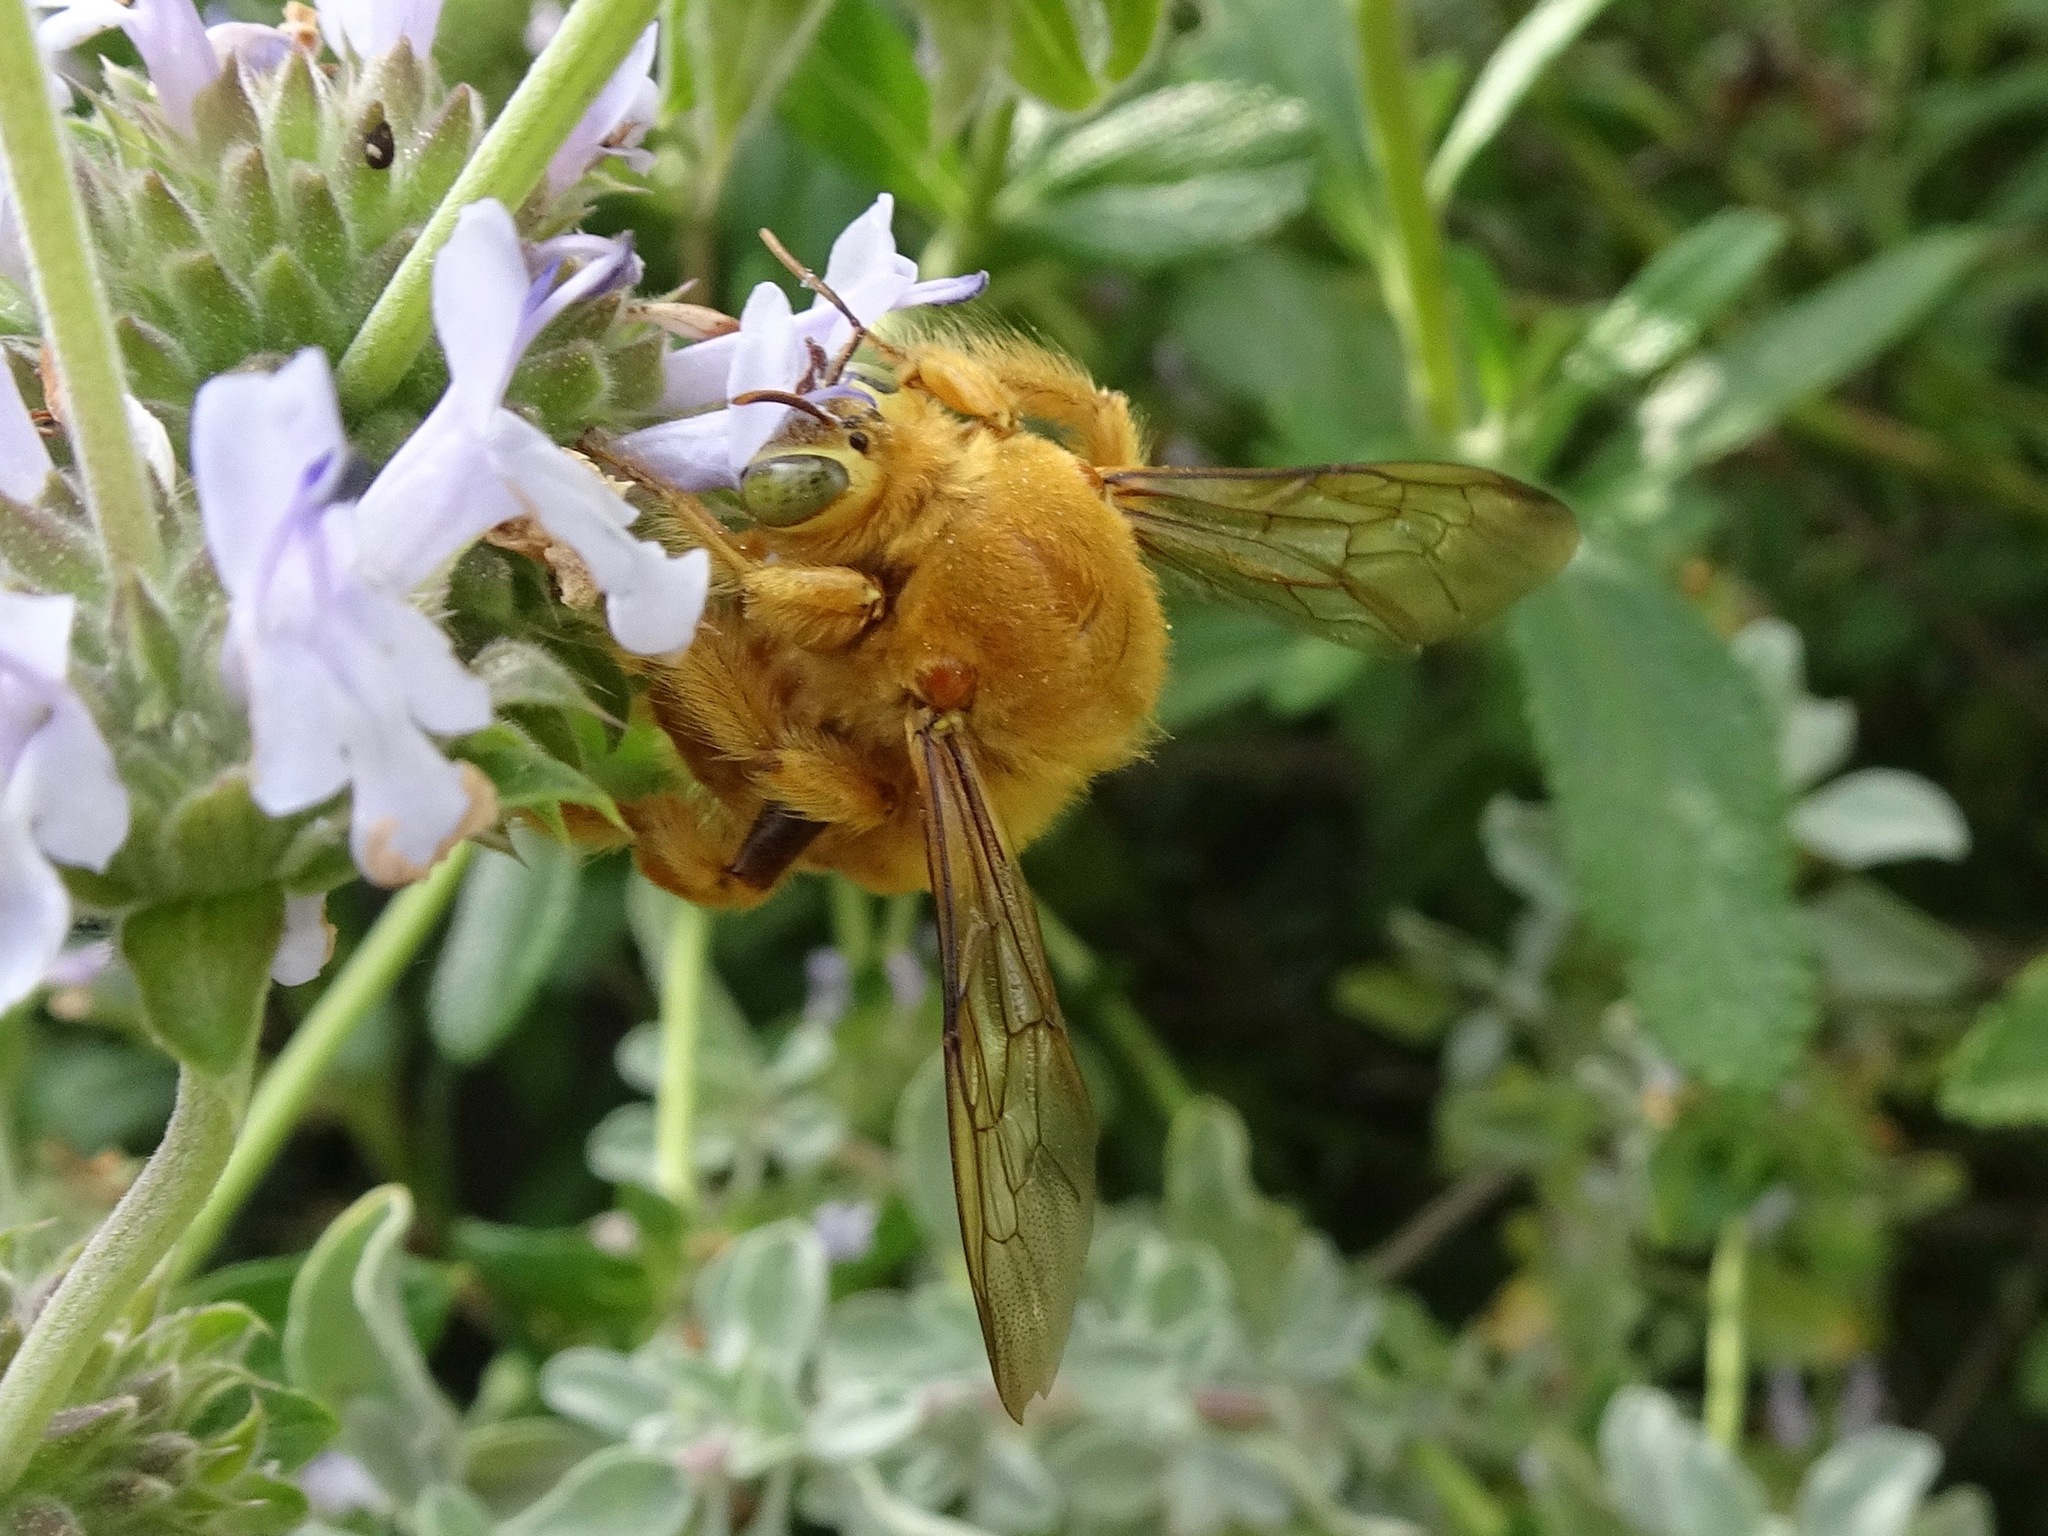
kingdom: Animalia
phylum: Arthropoda
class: Insecta
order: Hymenoptera
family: Apidae
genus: Xylocopa
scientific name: Xylocopa sonorina
